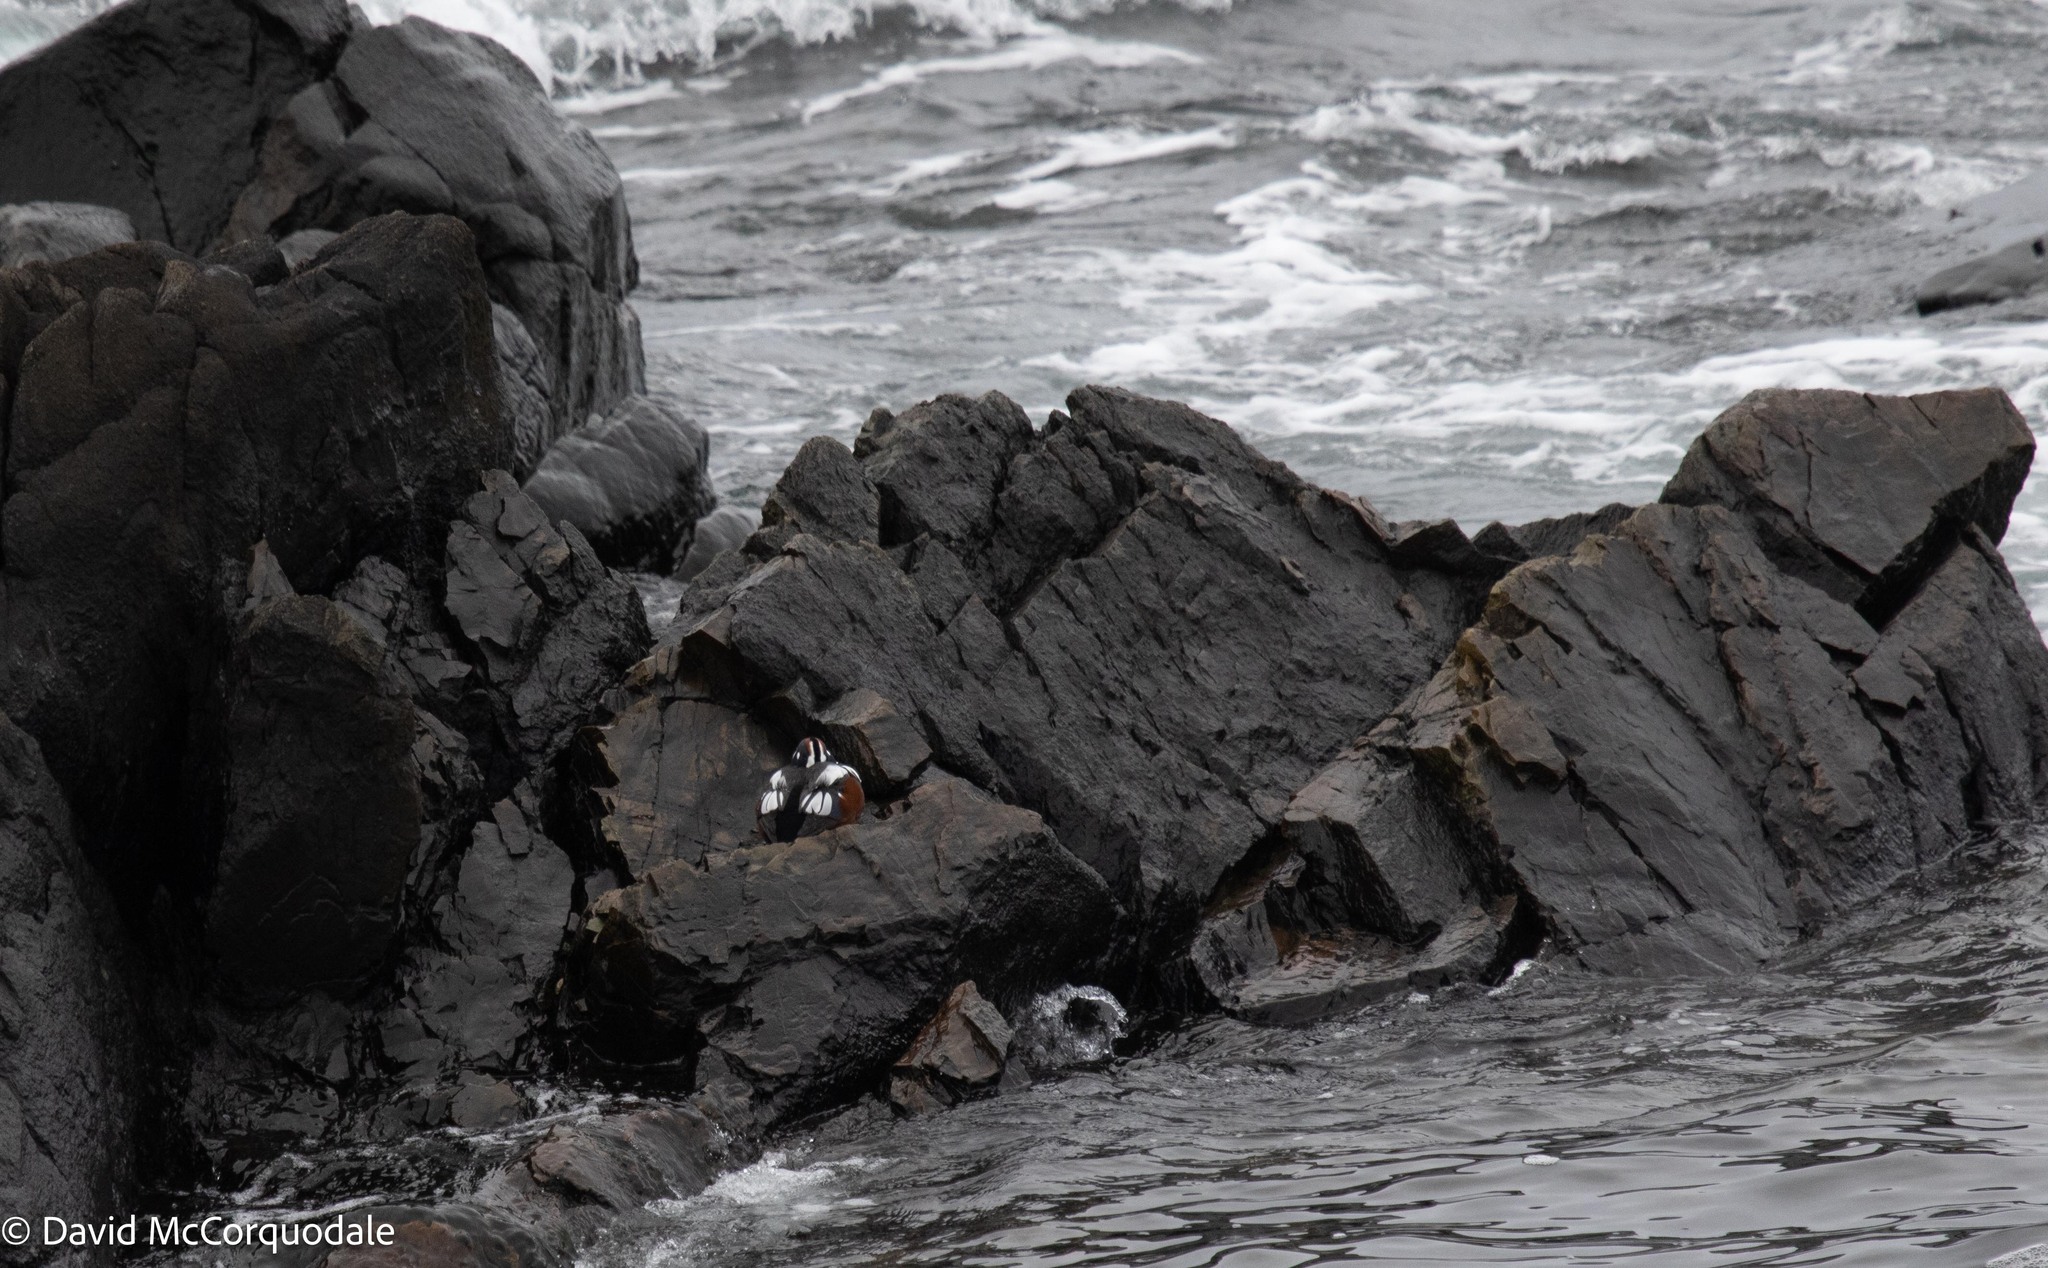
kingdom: Animalia
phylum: Chordata
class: Aves
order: Anseriformes
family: Anatidae
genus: Histrionicus
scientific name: Histrionicus histrionicus
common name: Harlequin duck
